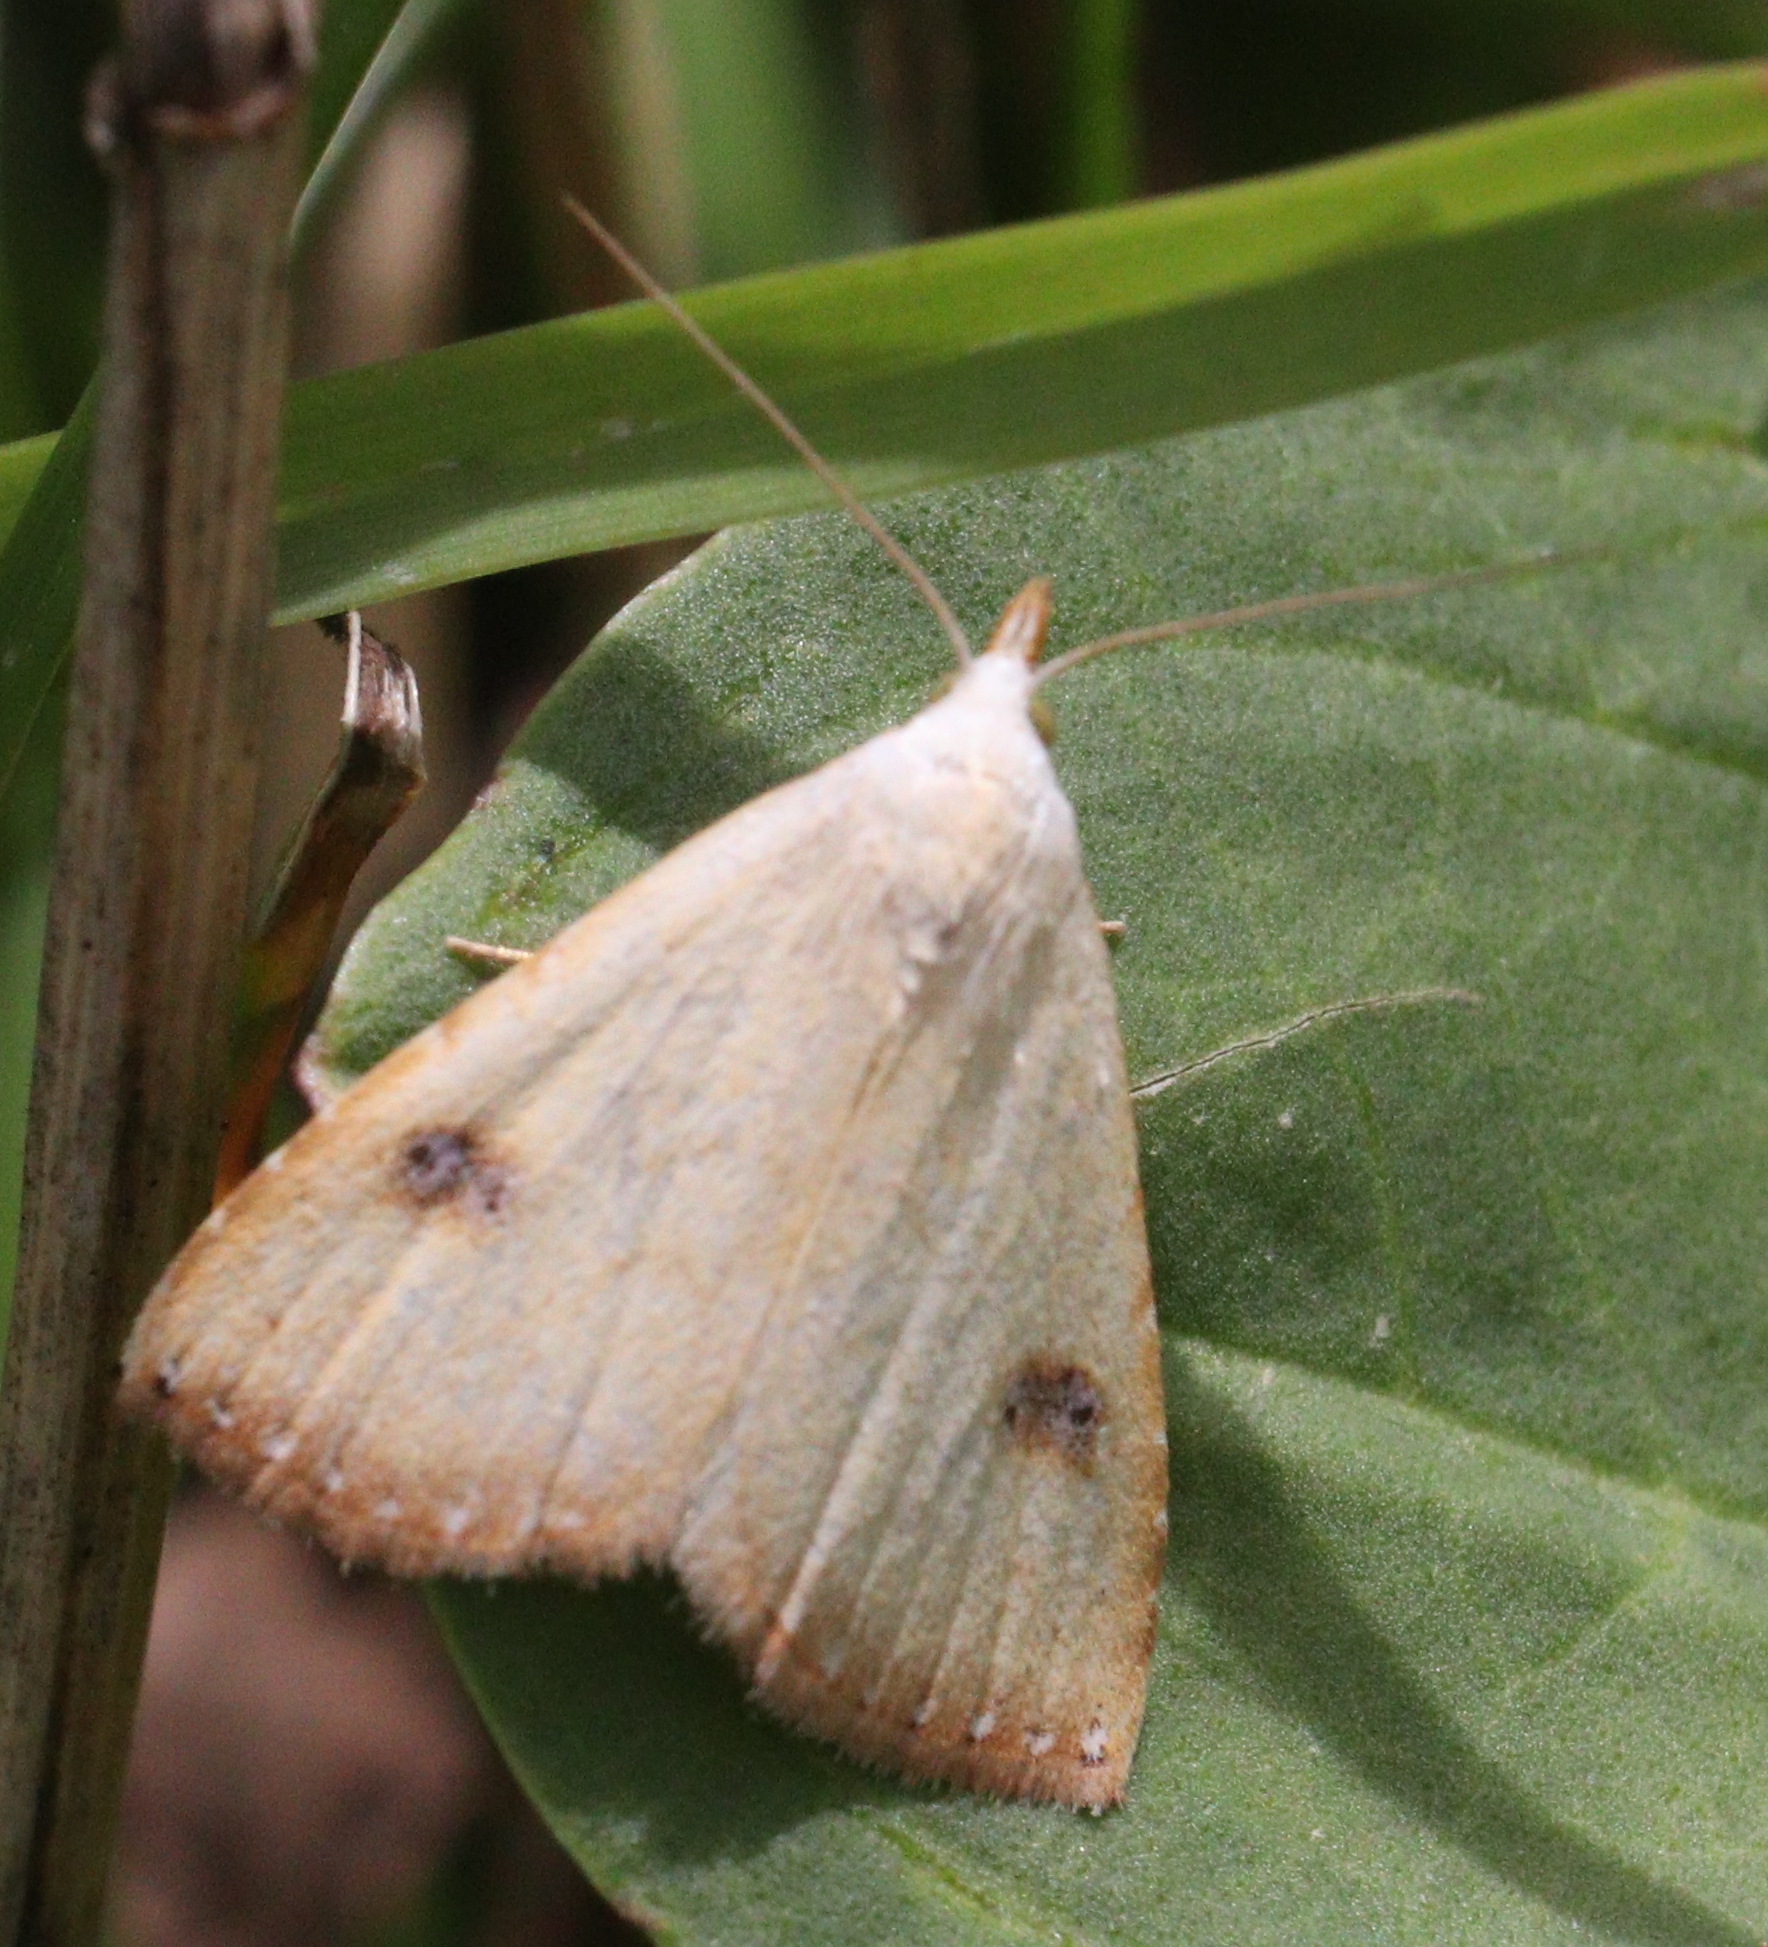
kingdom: Animalia
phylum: Arthropoda
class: Insecta
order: Lepidoptera
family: Erebidae
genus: Rivula
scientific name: Rivula sericealis
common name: Straw dot
